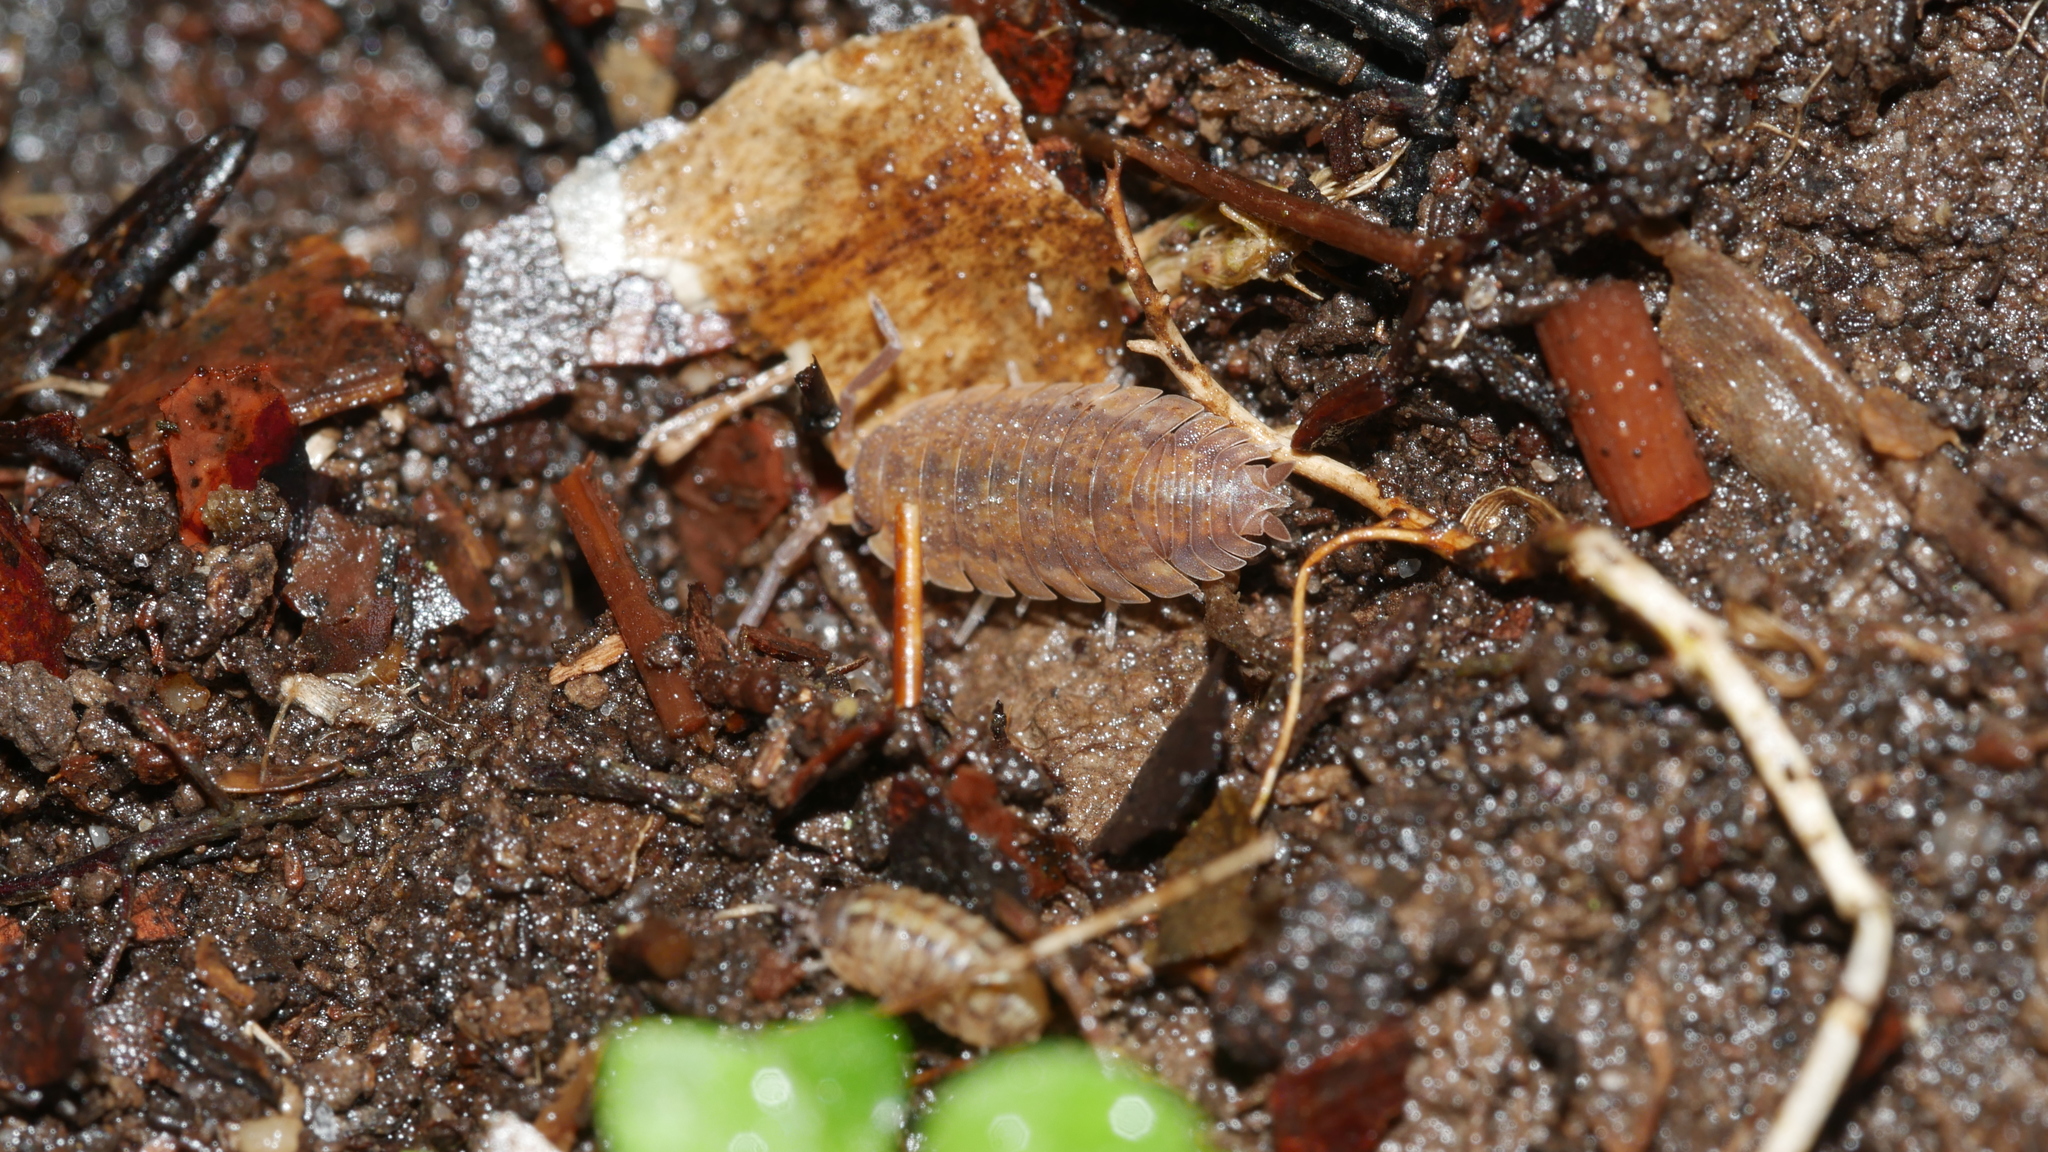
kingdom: Animalia
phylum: Arthropoda
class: Malacostraca
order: Isopoda
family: Porcellionidae
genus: Porcellio
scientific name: Porcellio scaber
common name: Common rough woodlouse
